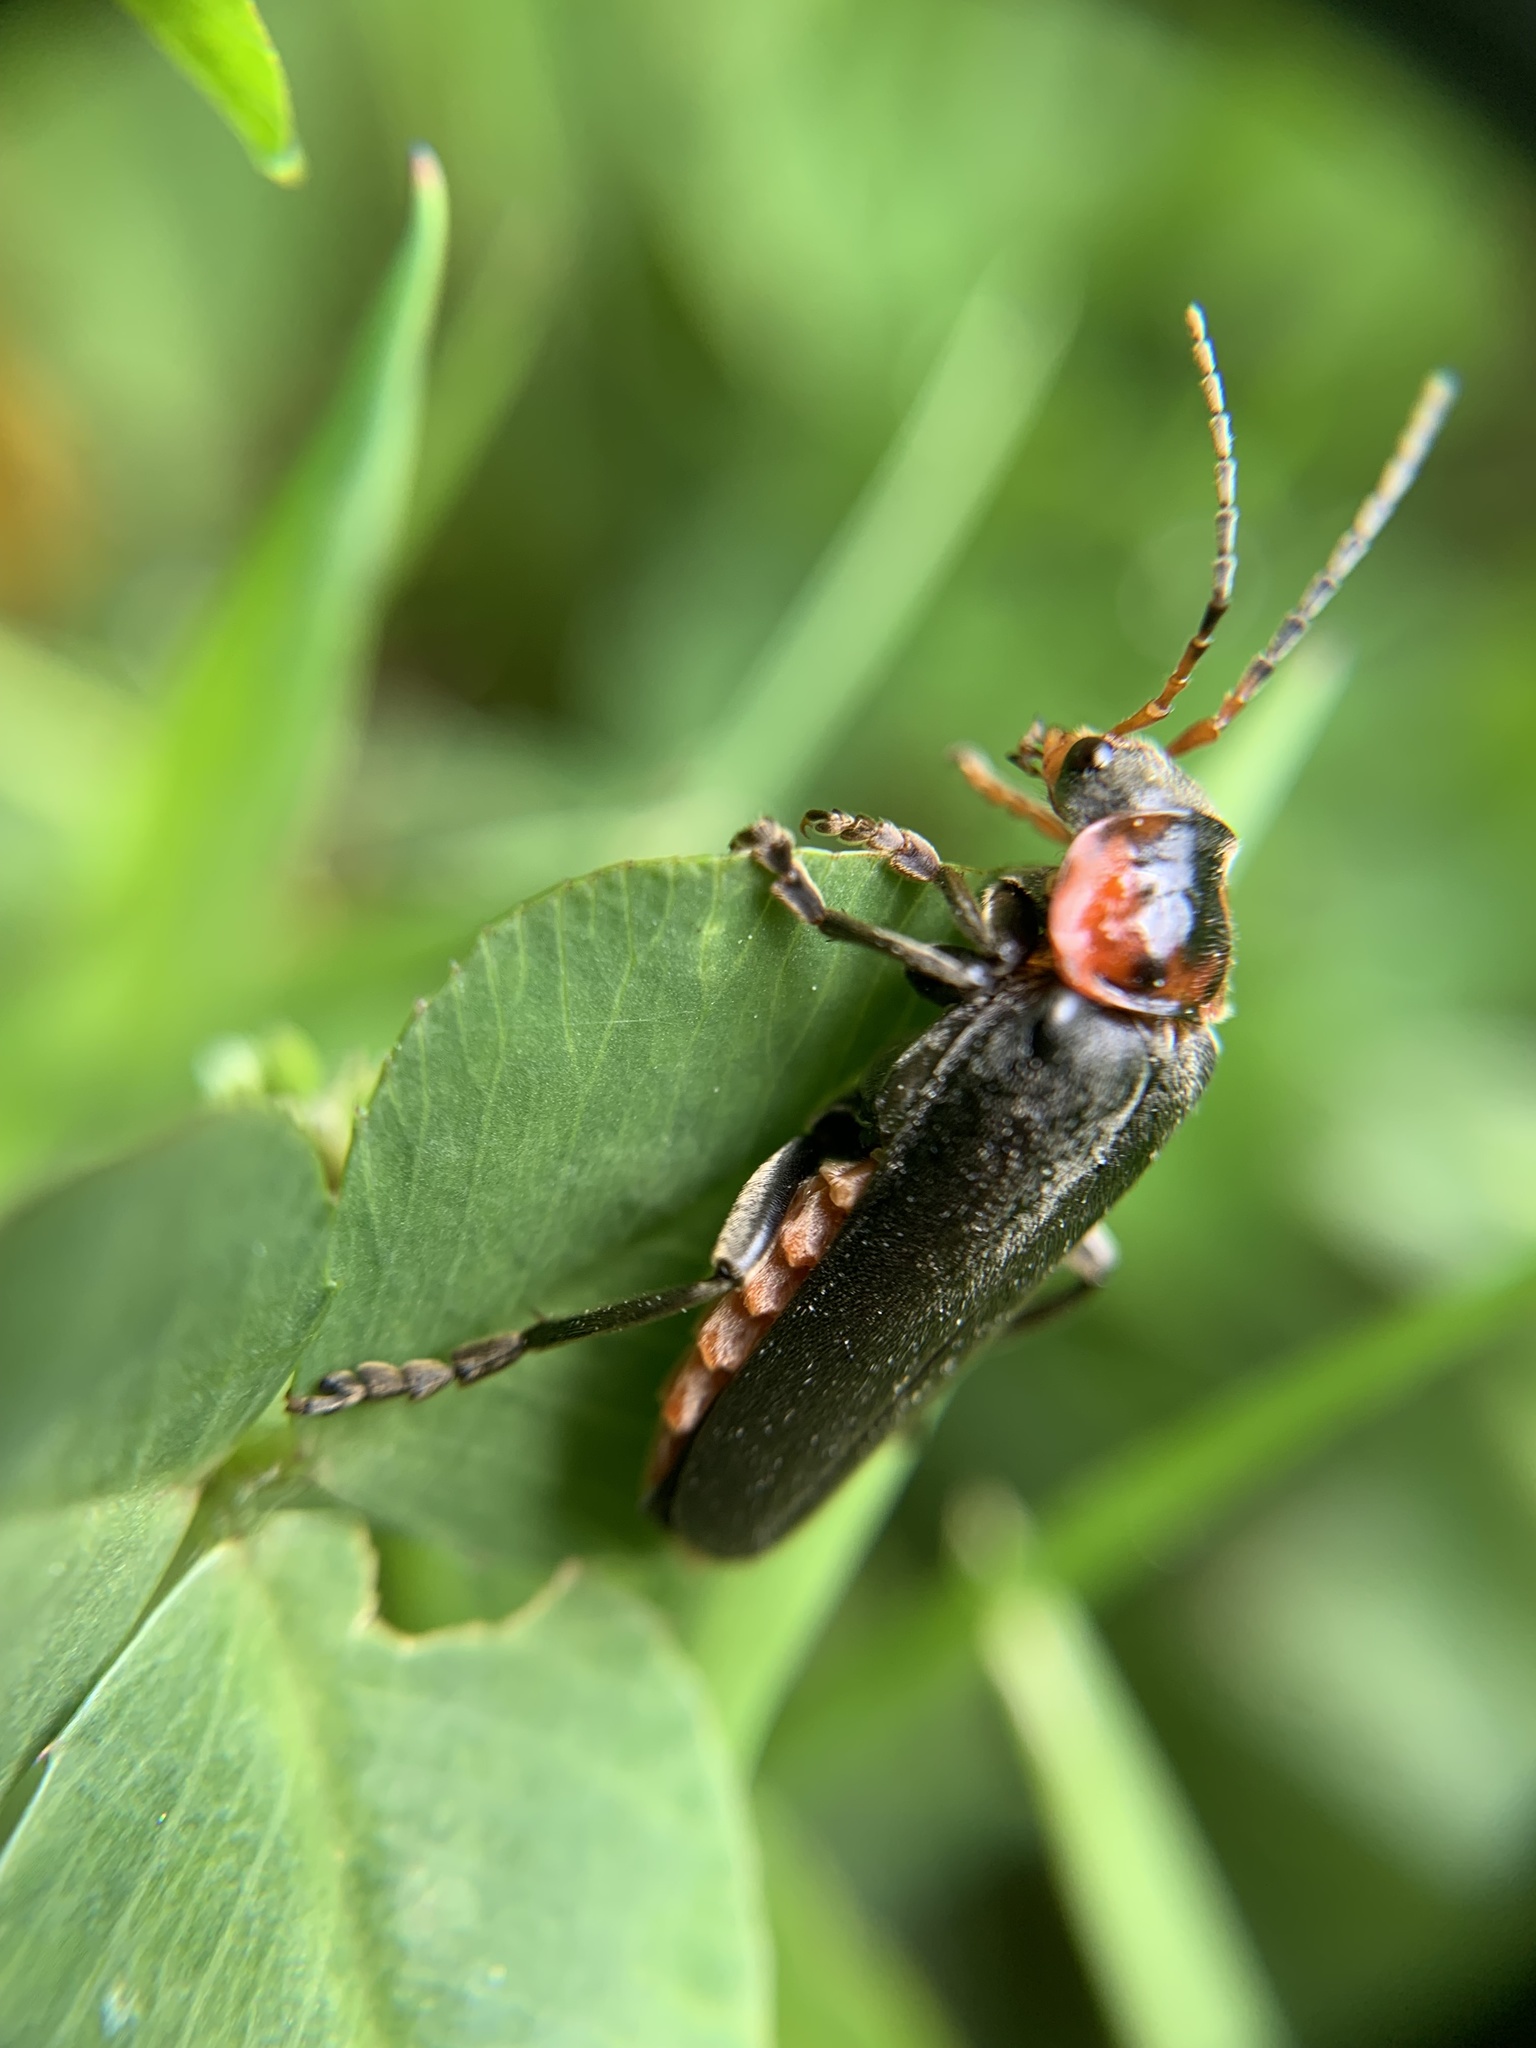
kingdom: Animalia
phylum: Arthropoda
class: Insecta
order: Coleoptera
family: Cantharidae
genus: Cantharis
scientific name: Cantharis fusca
